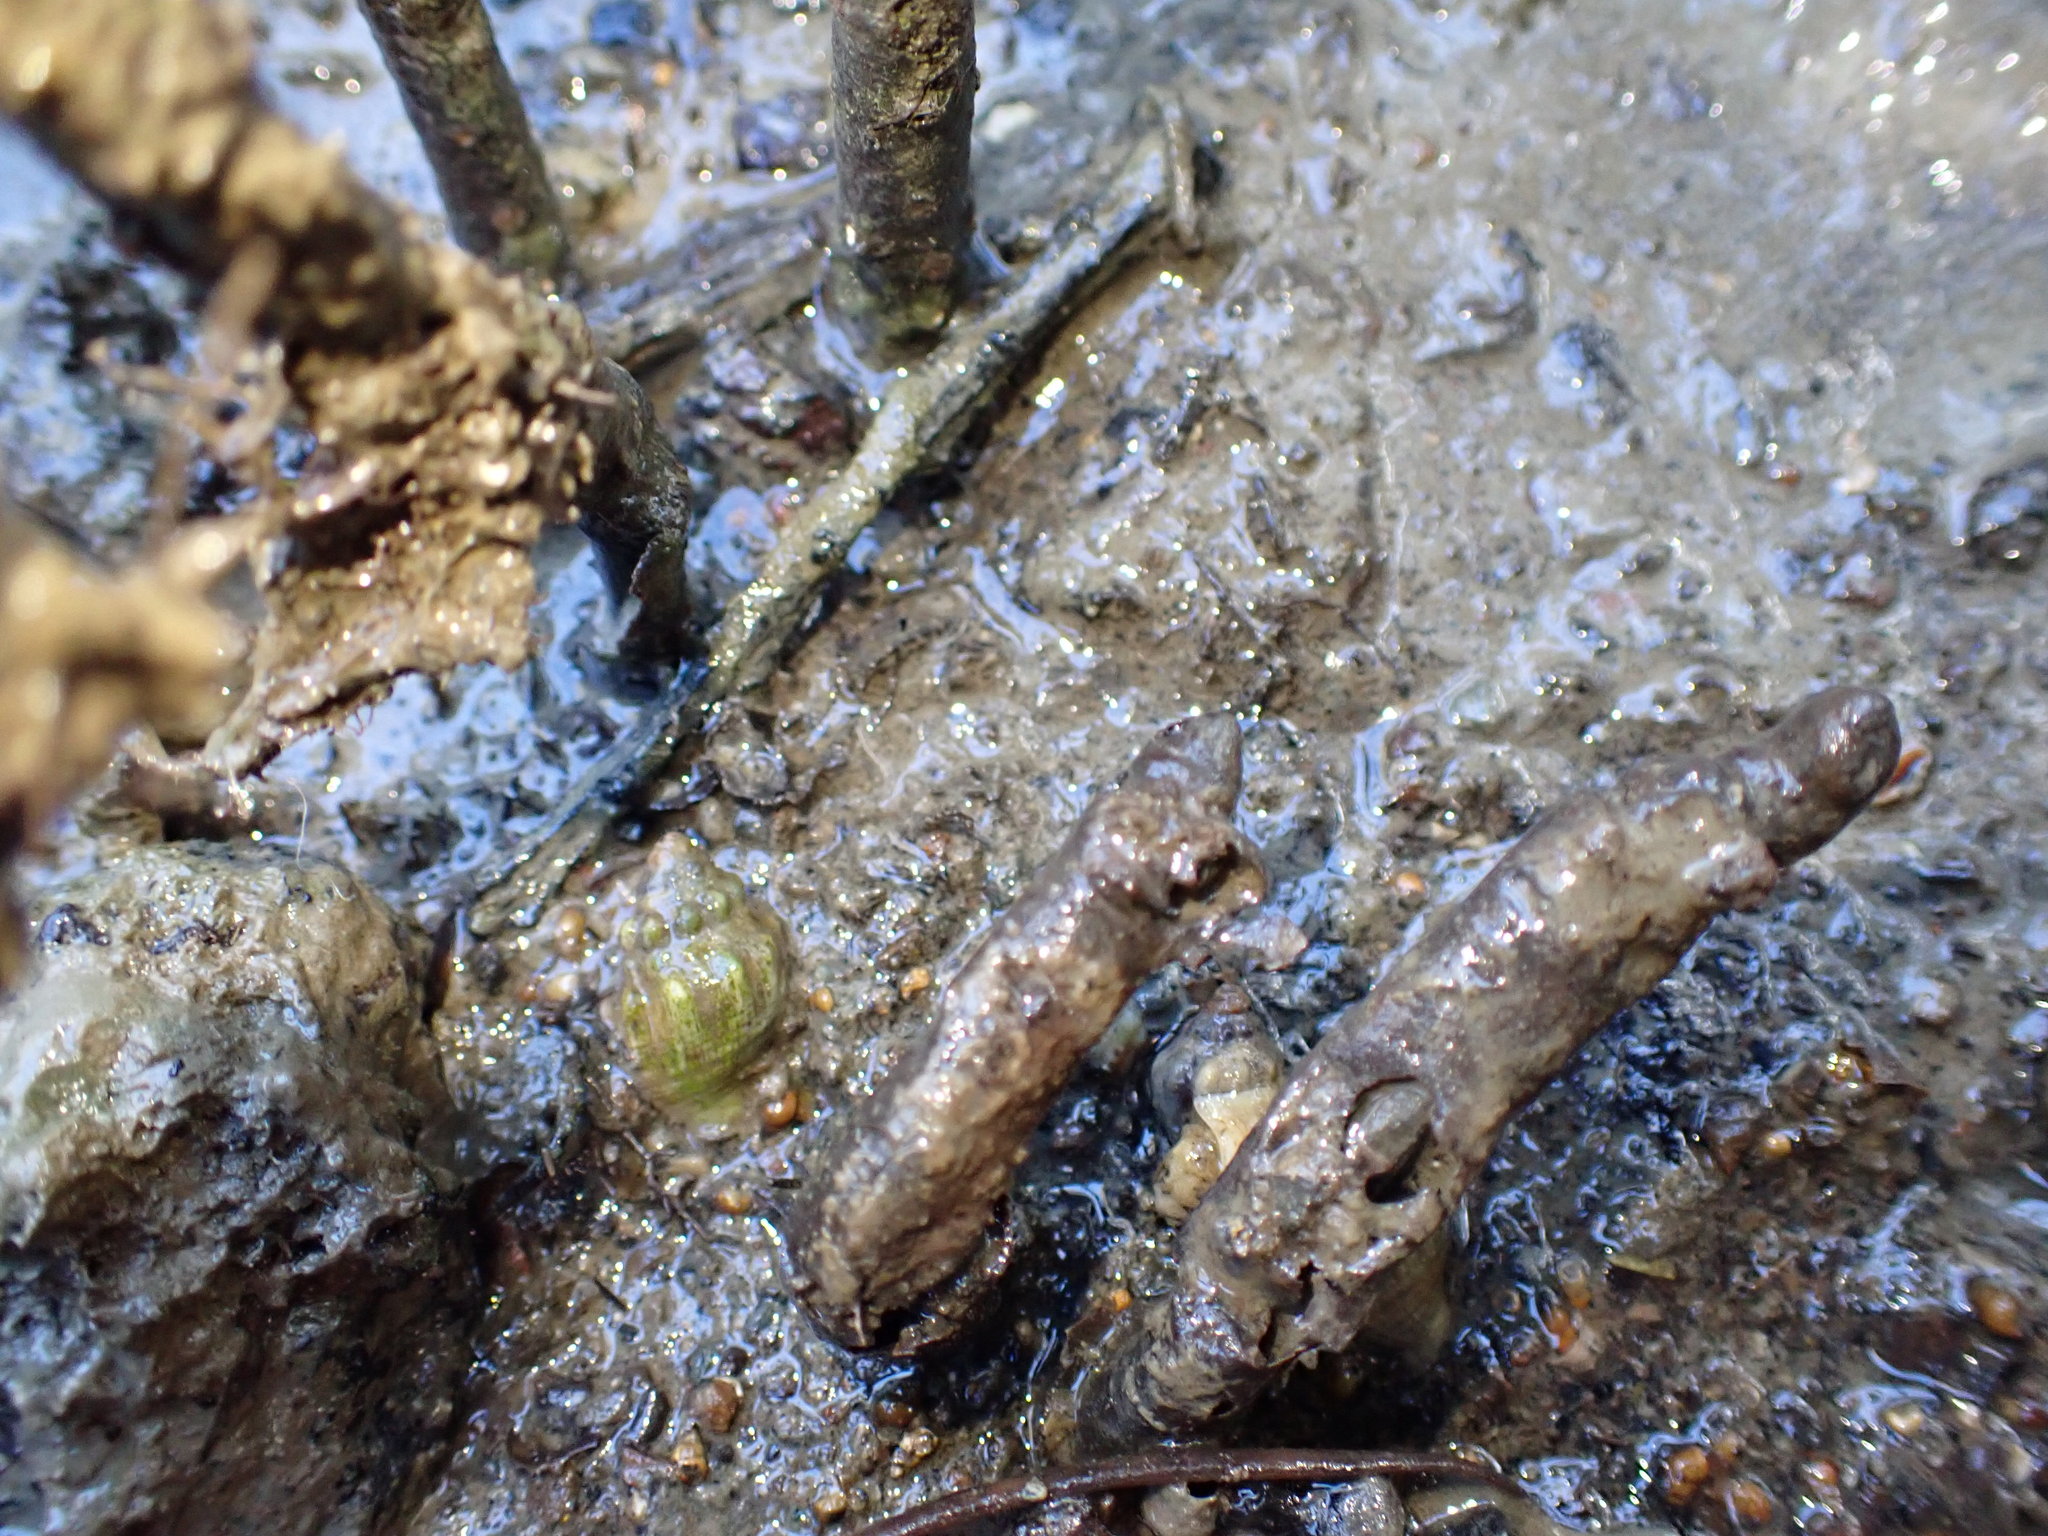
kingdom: Animalia
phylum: Mollusca
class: Gastropoda
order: Neogastropoda
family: Cominellidae
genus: Cominella
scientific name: Cominella glandiformis
